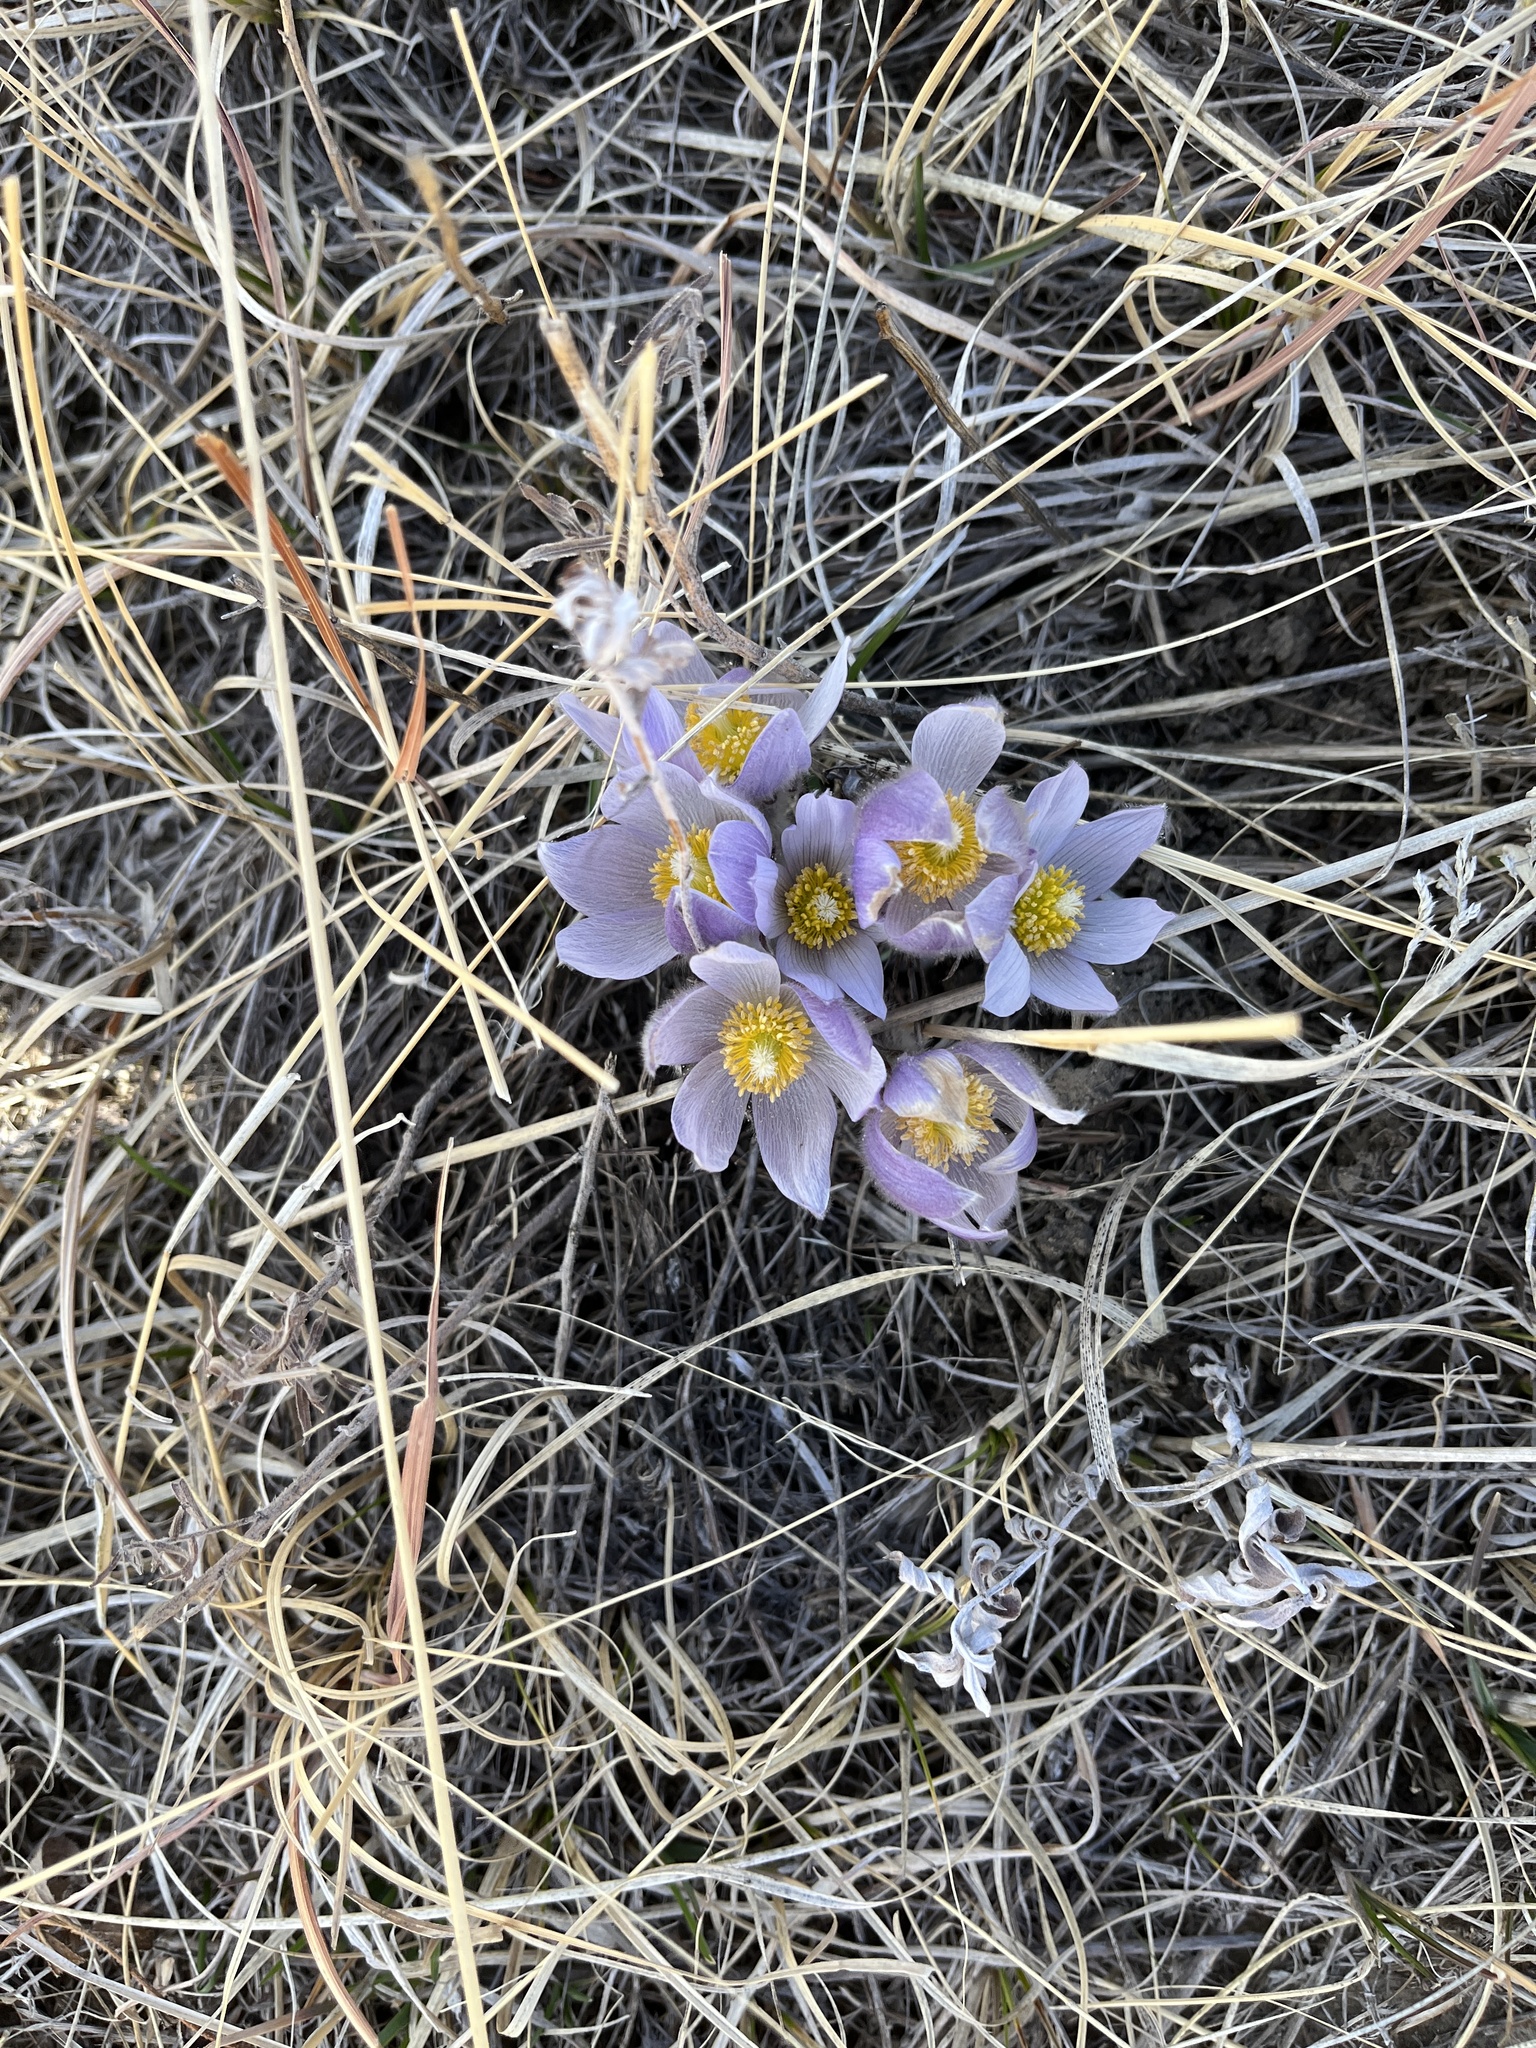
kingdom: Plantae
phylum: Tracheophyta
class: Magnoliopsida
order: Ranunculales
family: Ranunculaceae
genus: Pulsatilla
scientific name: Pulsatilla nuttalliana
